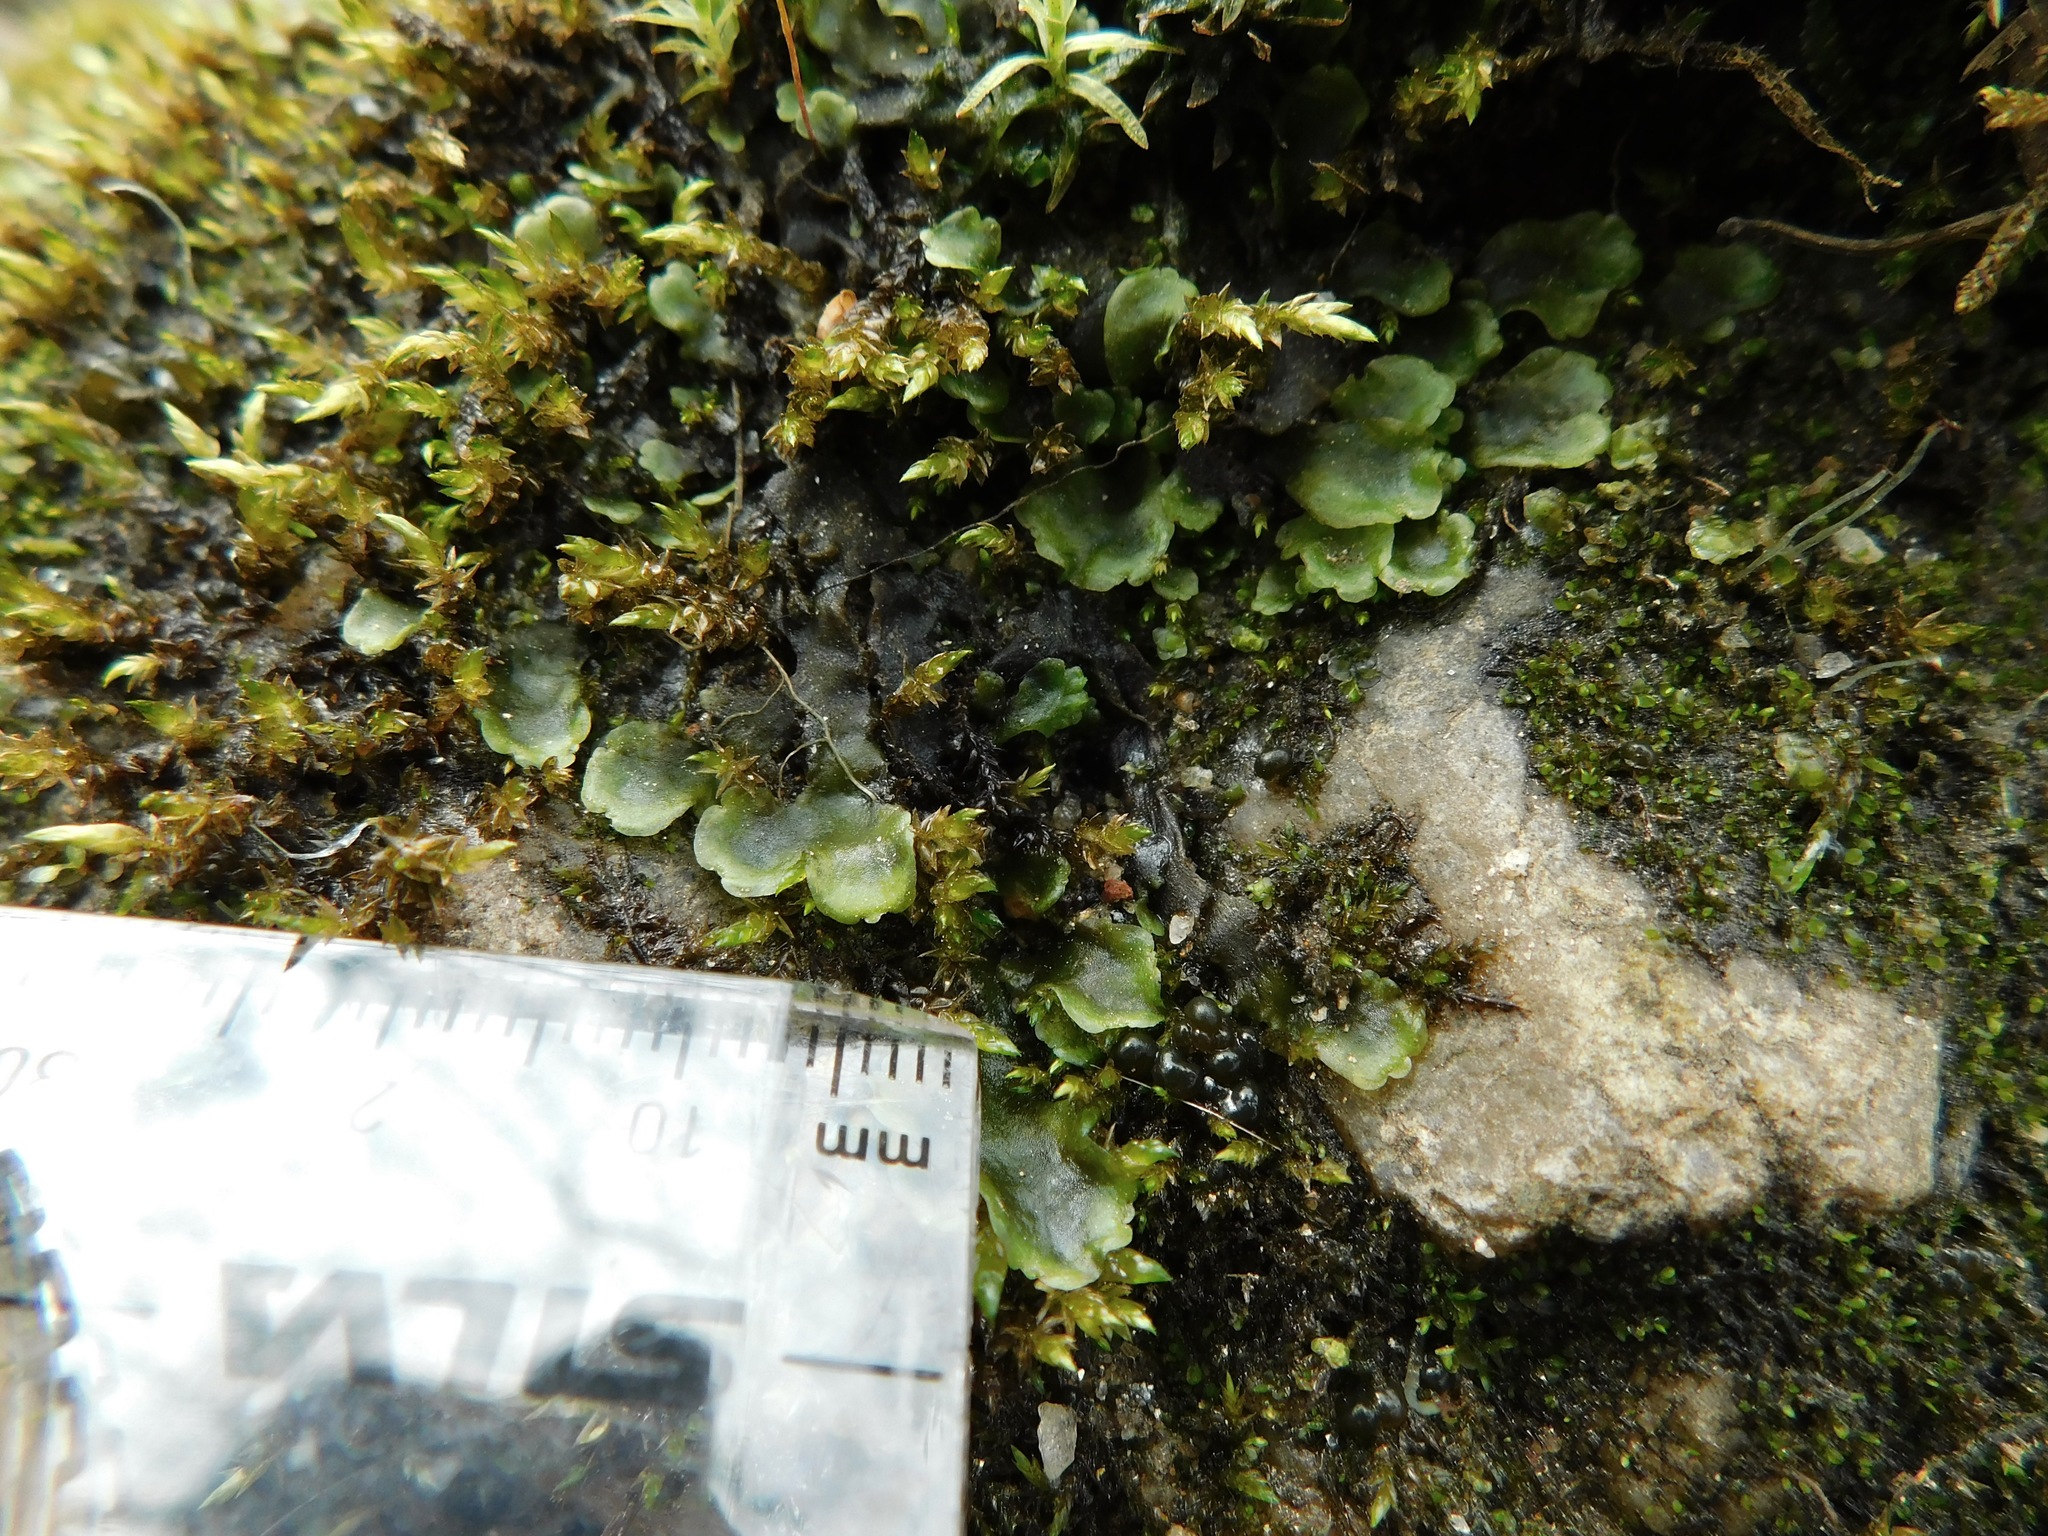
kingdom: Plantae
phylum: Marchantiophyta
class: Jungermanniopsida
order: Pelliales
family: Pelliaceae
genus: Pellia
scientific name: Pellia epiphylla
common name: Common pellia
